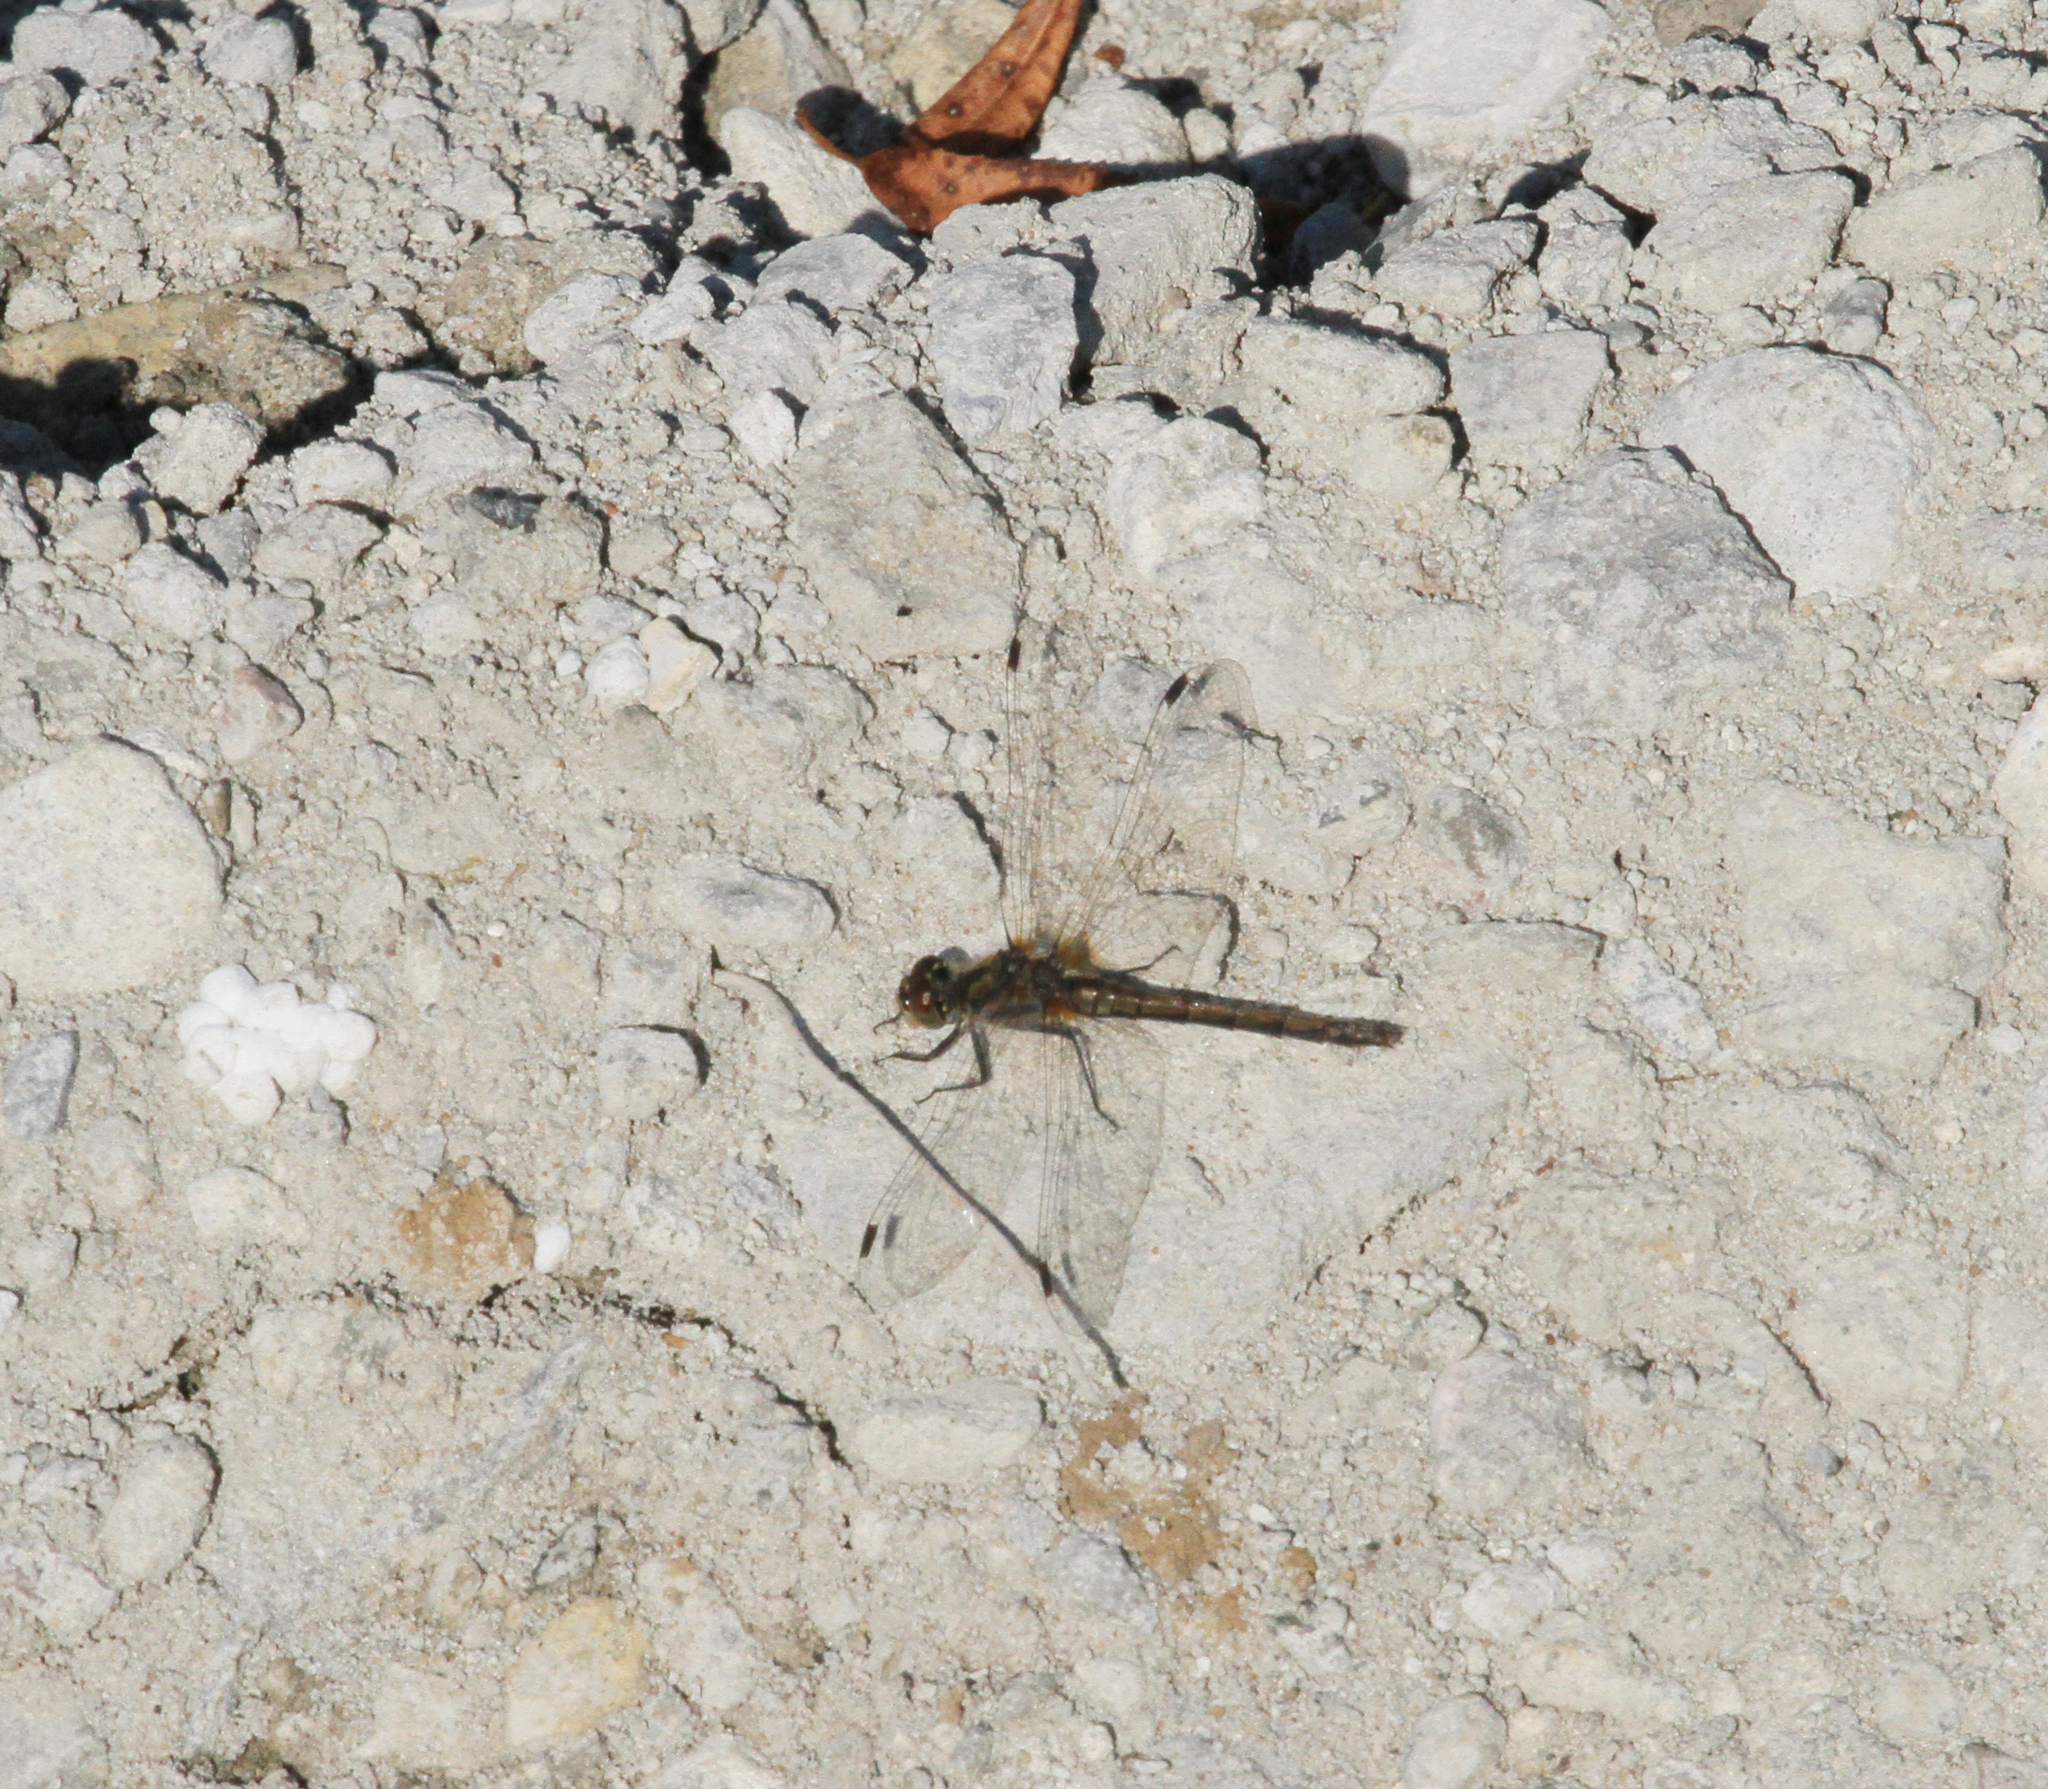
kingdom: Animalia
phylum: Arthropoda
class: Insecta
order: Odonata
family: Libellulidae
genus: Sympetrum
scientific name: Sympetrum danae
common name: Black darter
